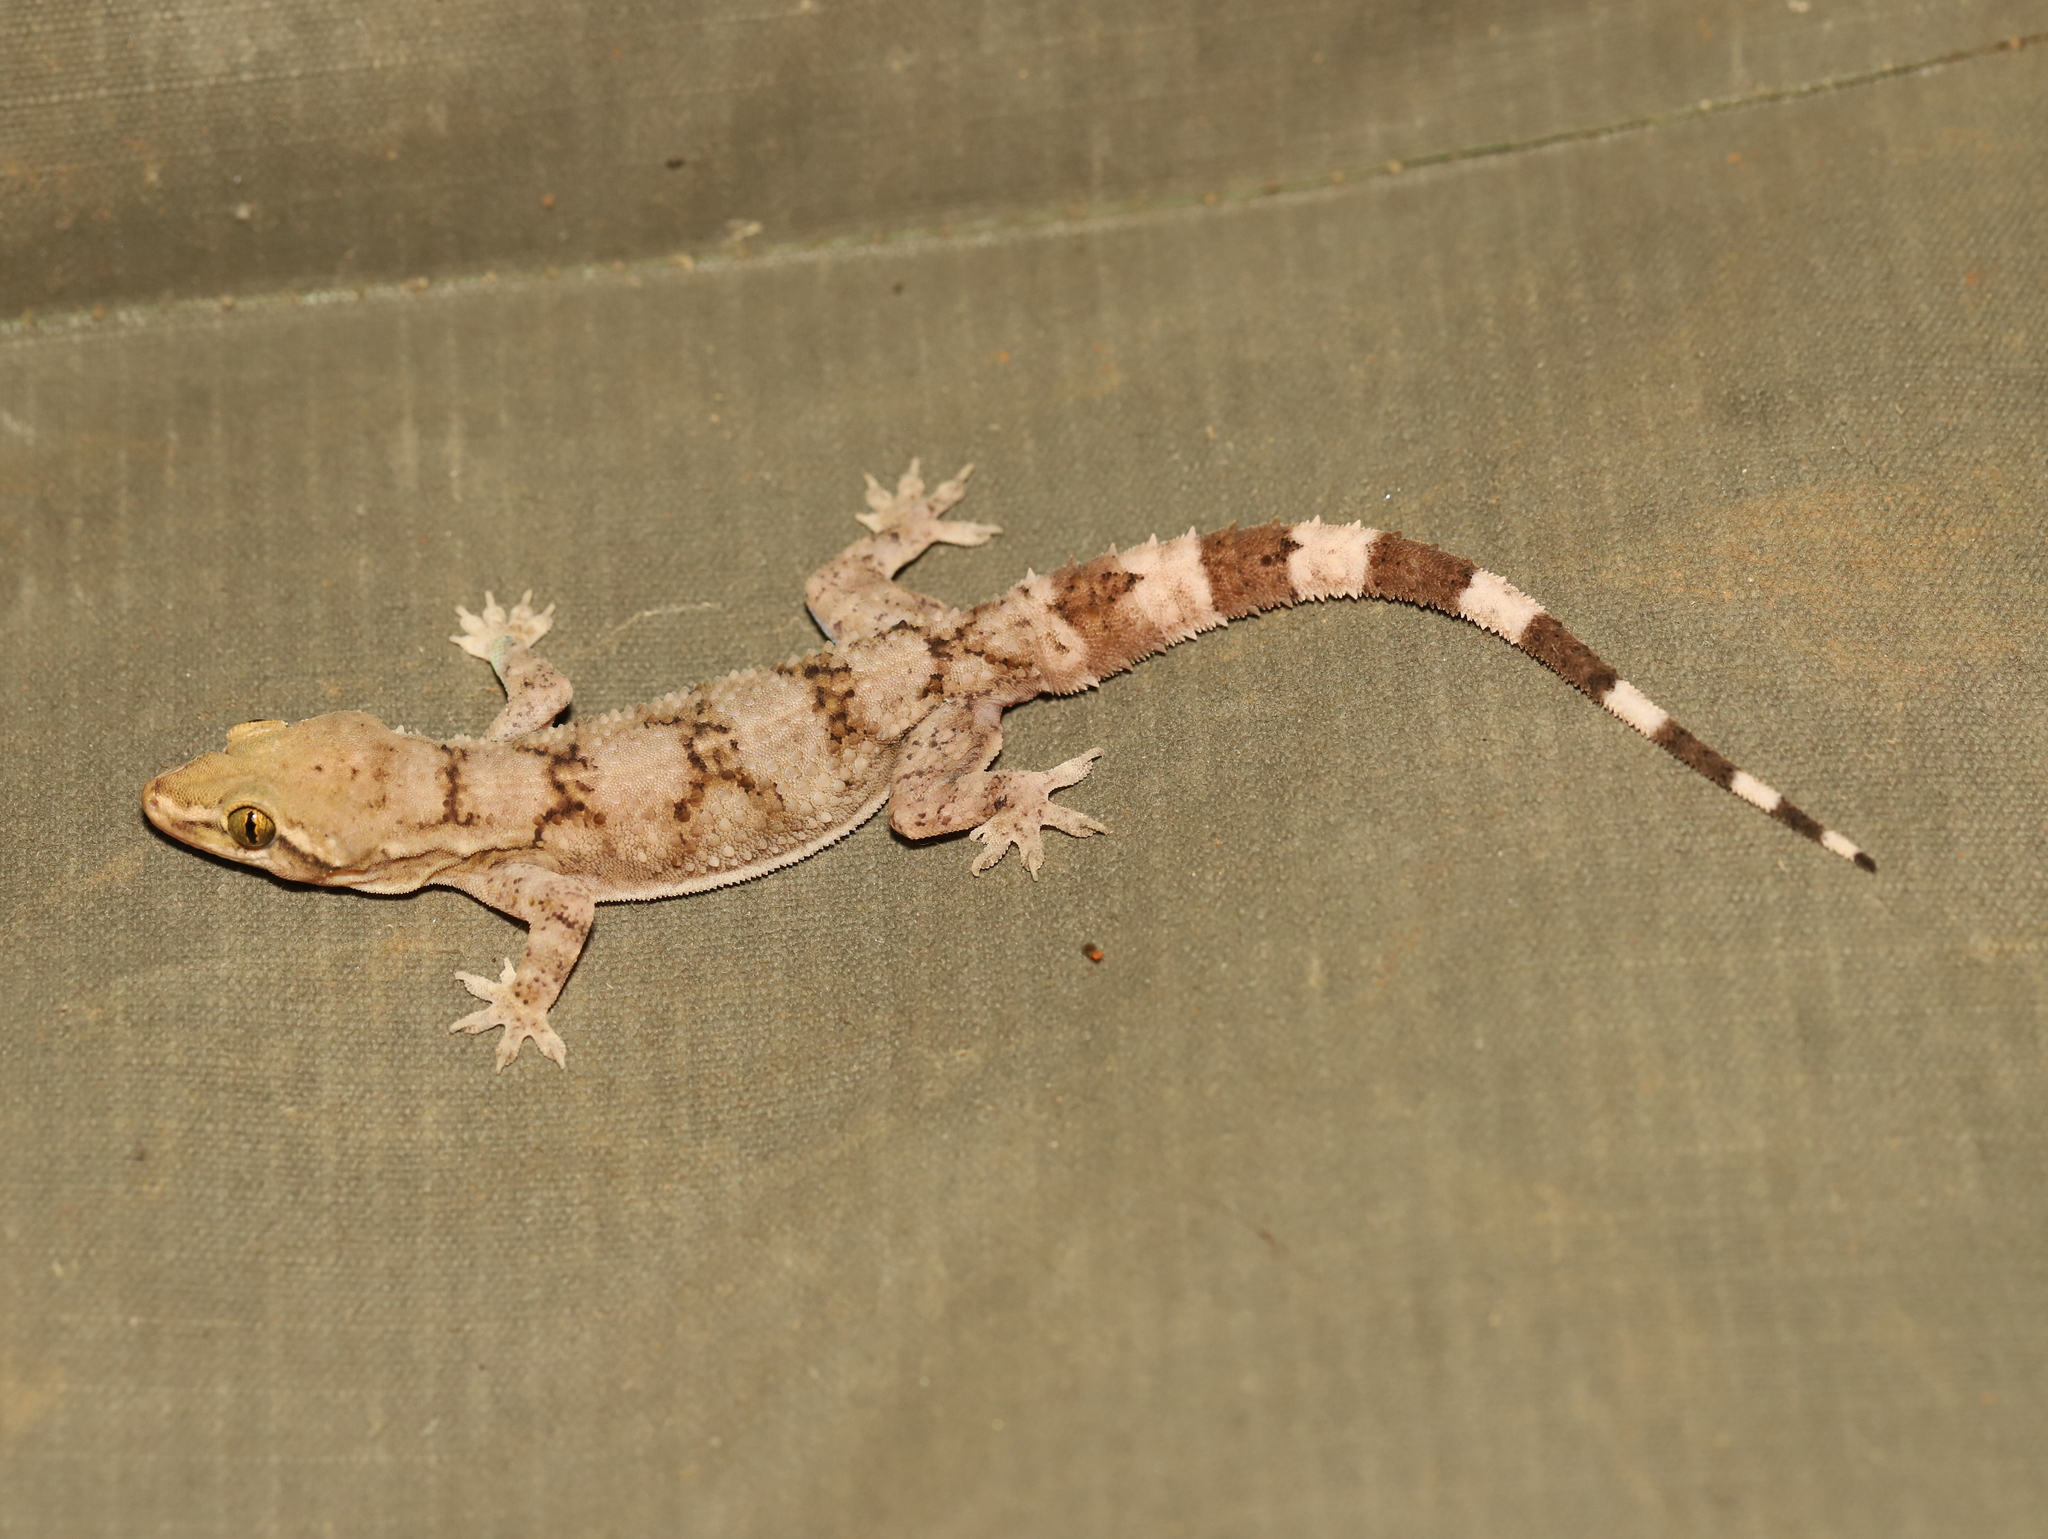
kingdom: Animalia
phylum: Chordata
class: Squamata
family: Gekkonidae
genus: Hemidactylus
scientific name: Hemidactylus depressus
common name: Srilanka leaf-toed gecko
